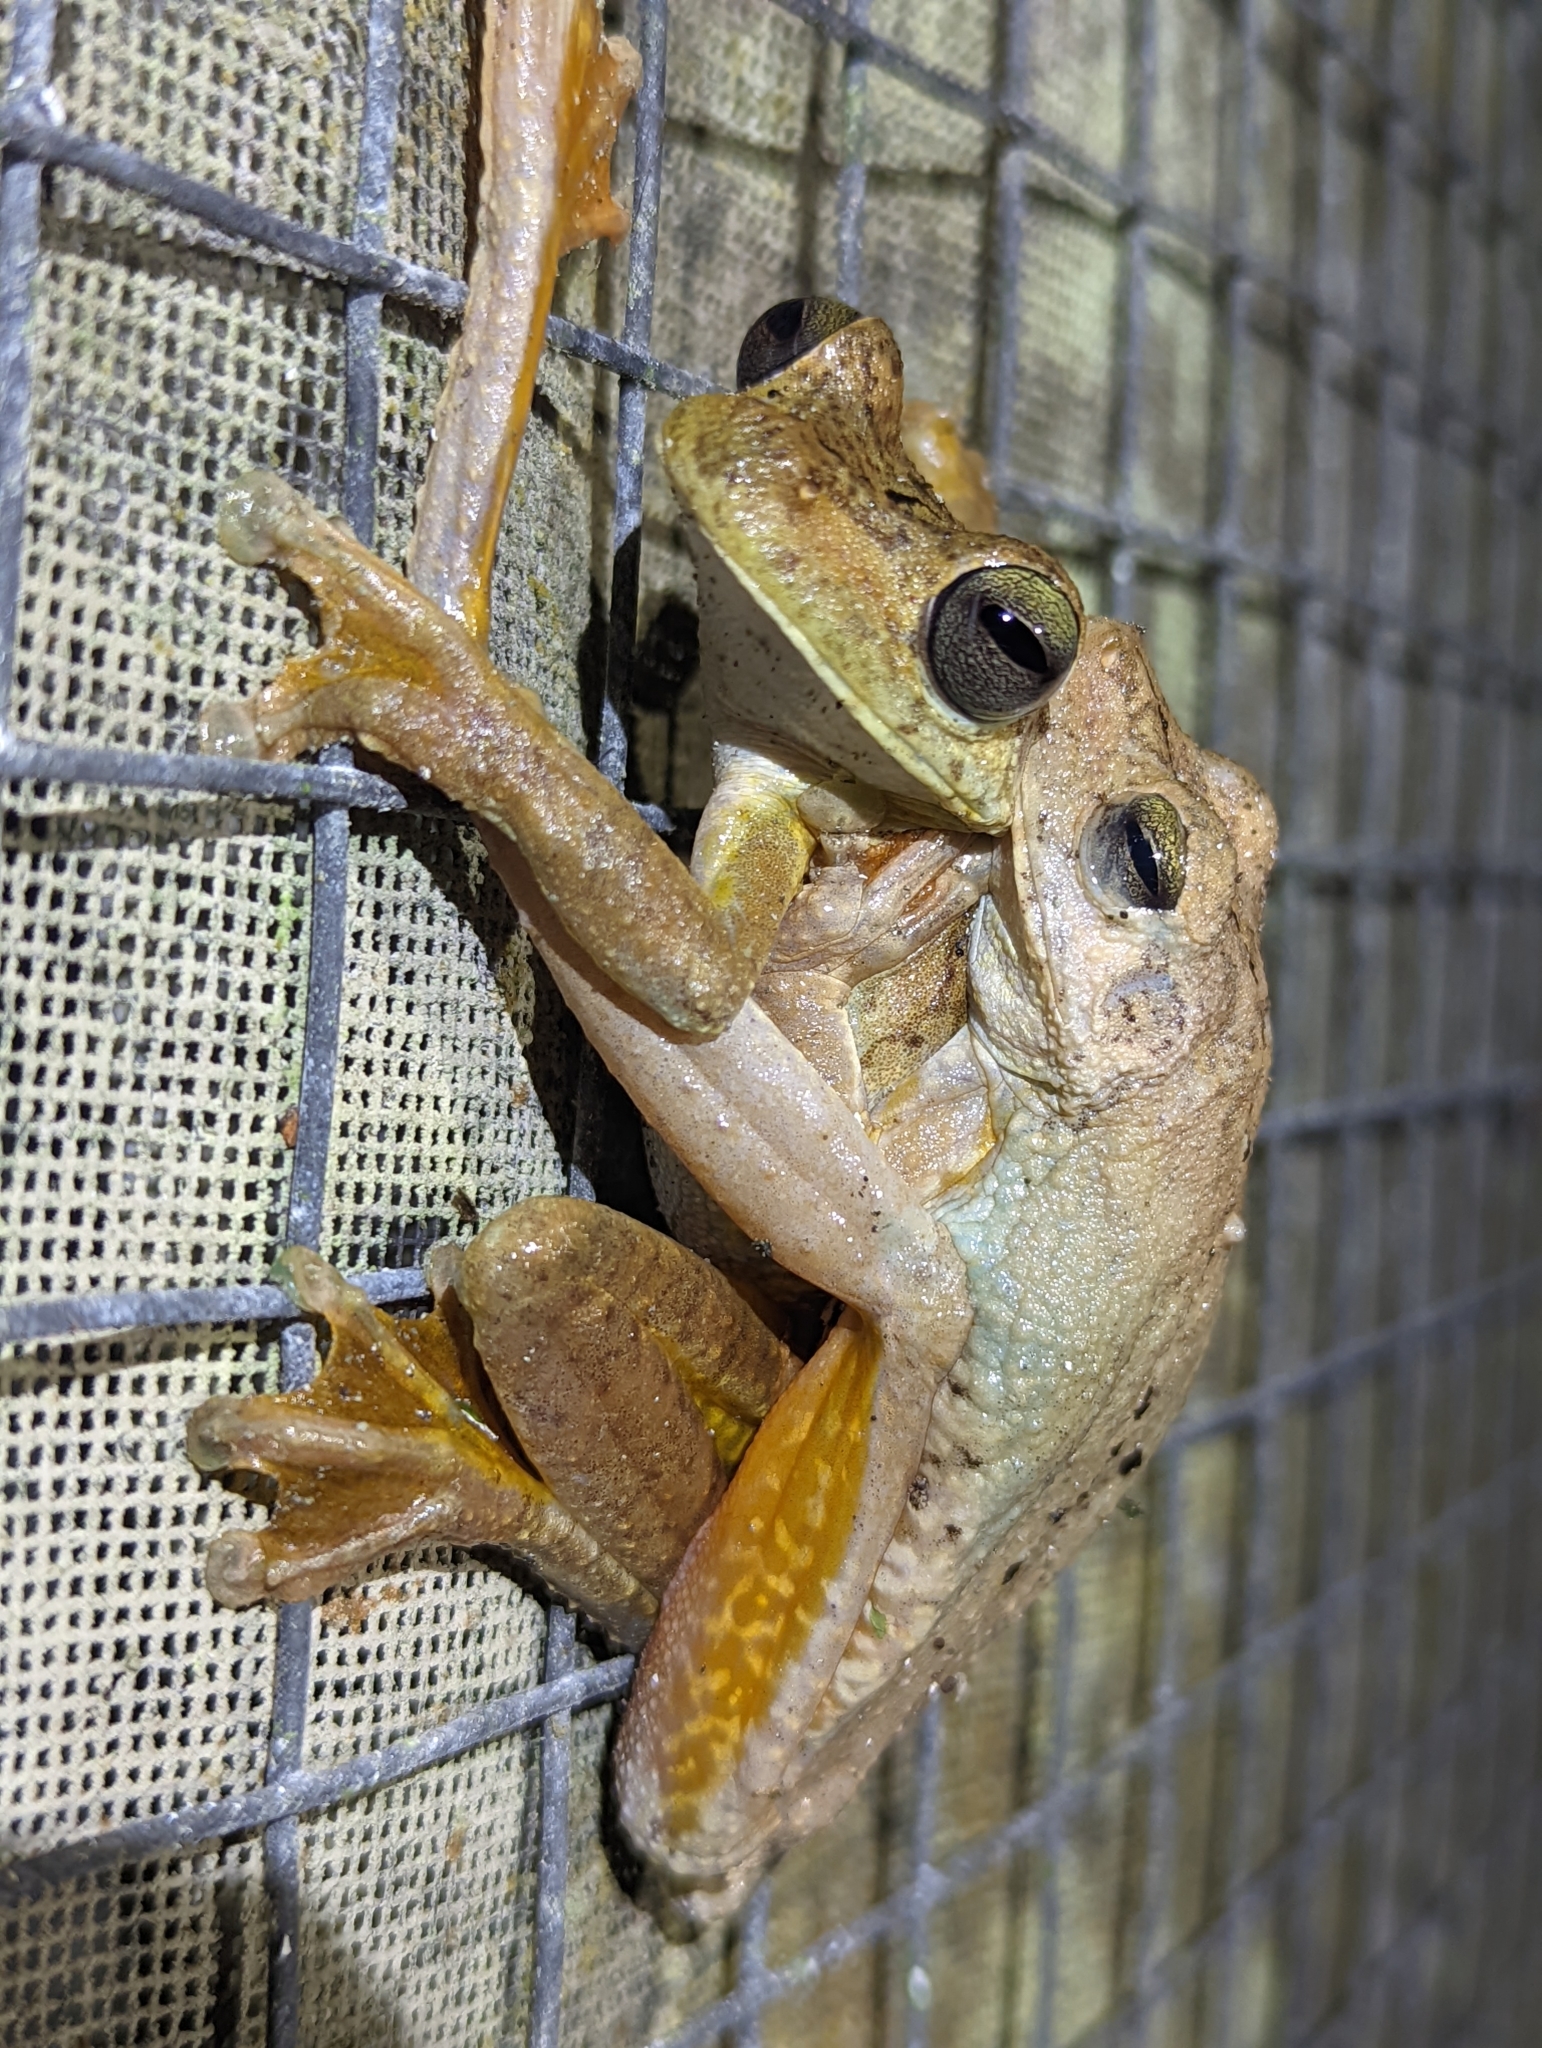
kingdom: Animalia
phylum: Chordata
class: Amphibia
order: Anura
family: Hylidae
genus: Boana
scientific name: Boana rosenbergi
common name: Rosenberg´s gladiator treefrog
